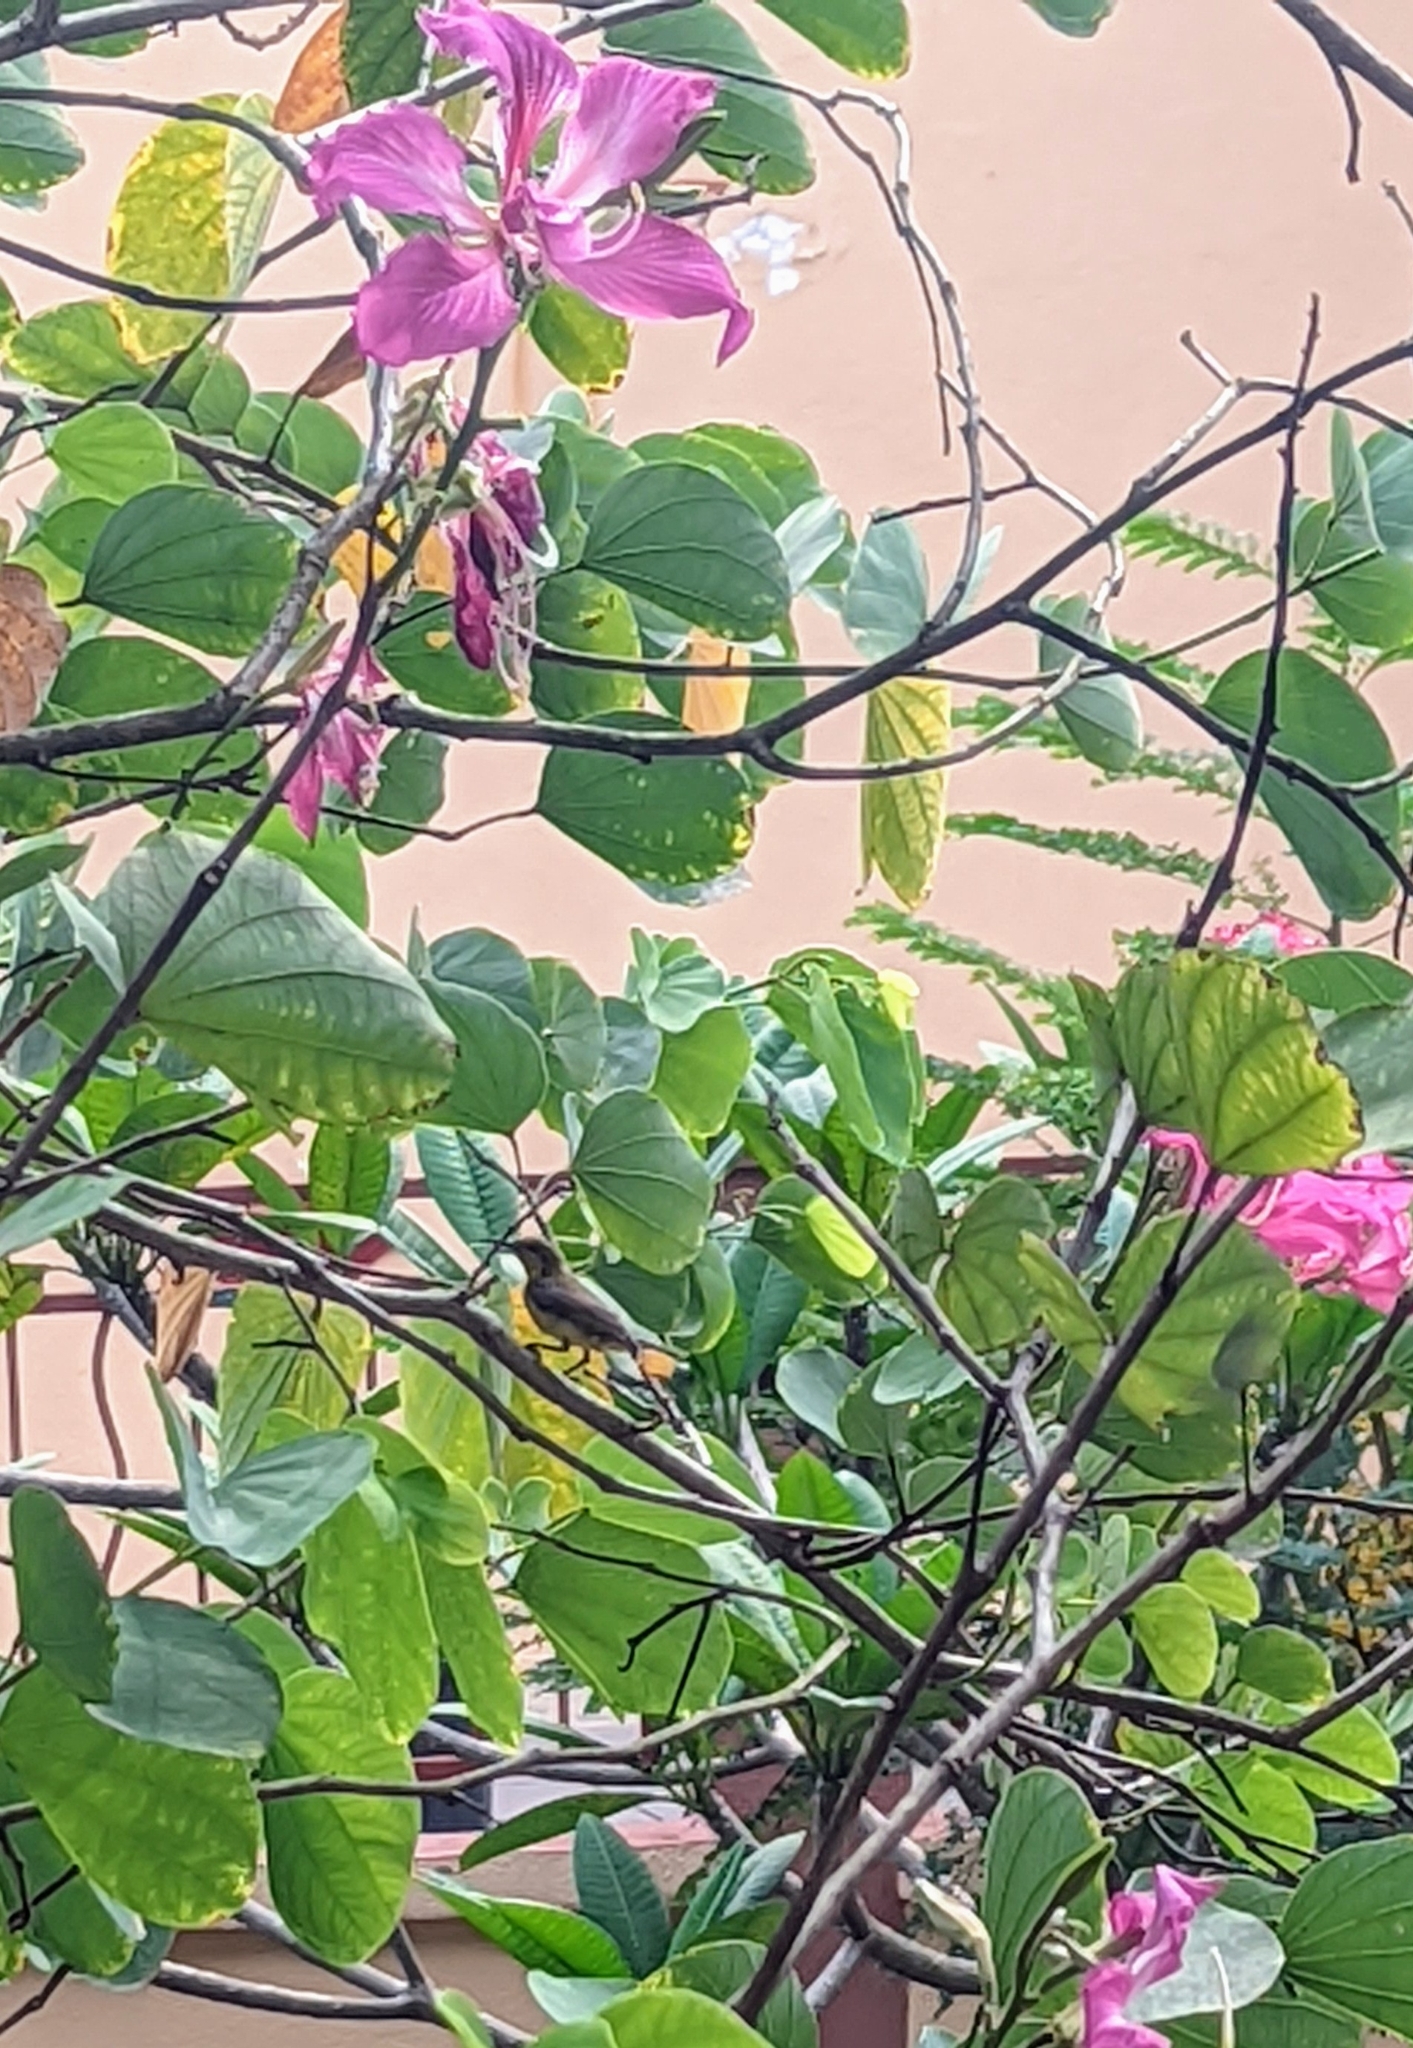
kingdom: Animalia
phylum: Chordata
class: Aves
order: Passeriformes
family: Nectariniidae
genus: Cinnyris
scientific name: Cinnyris
